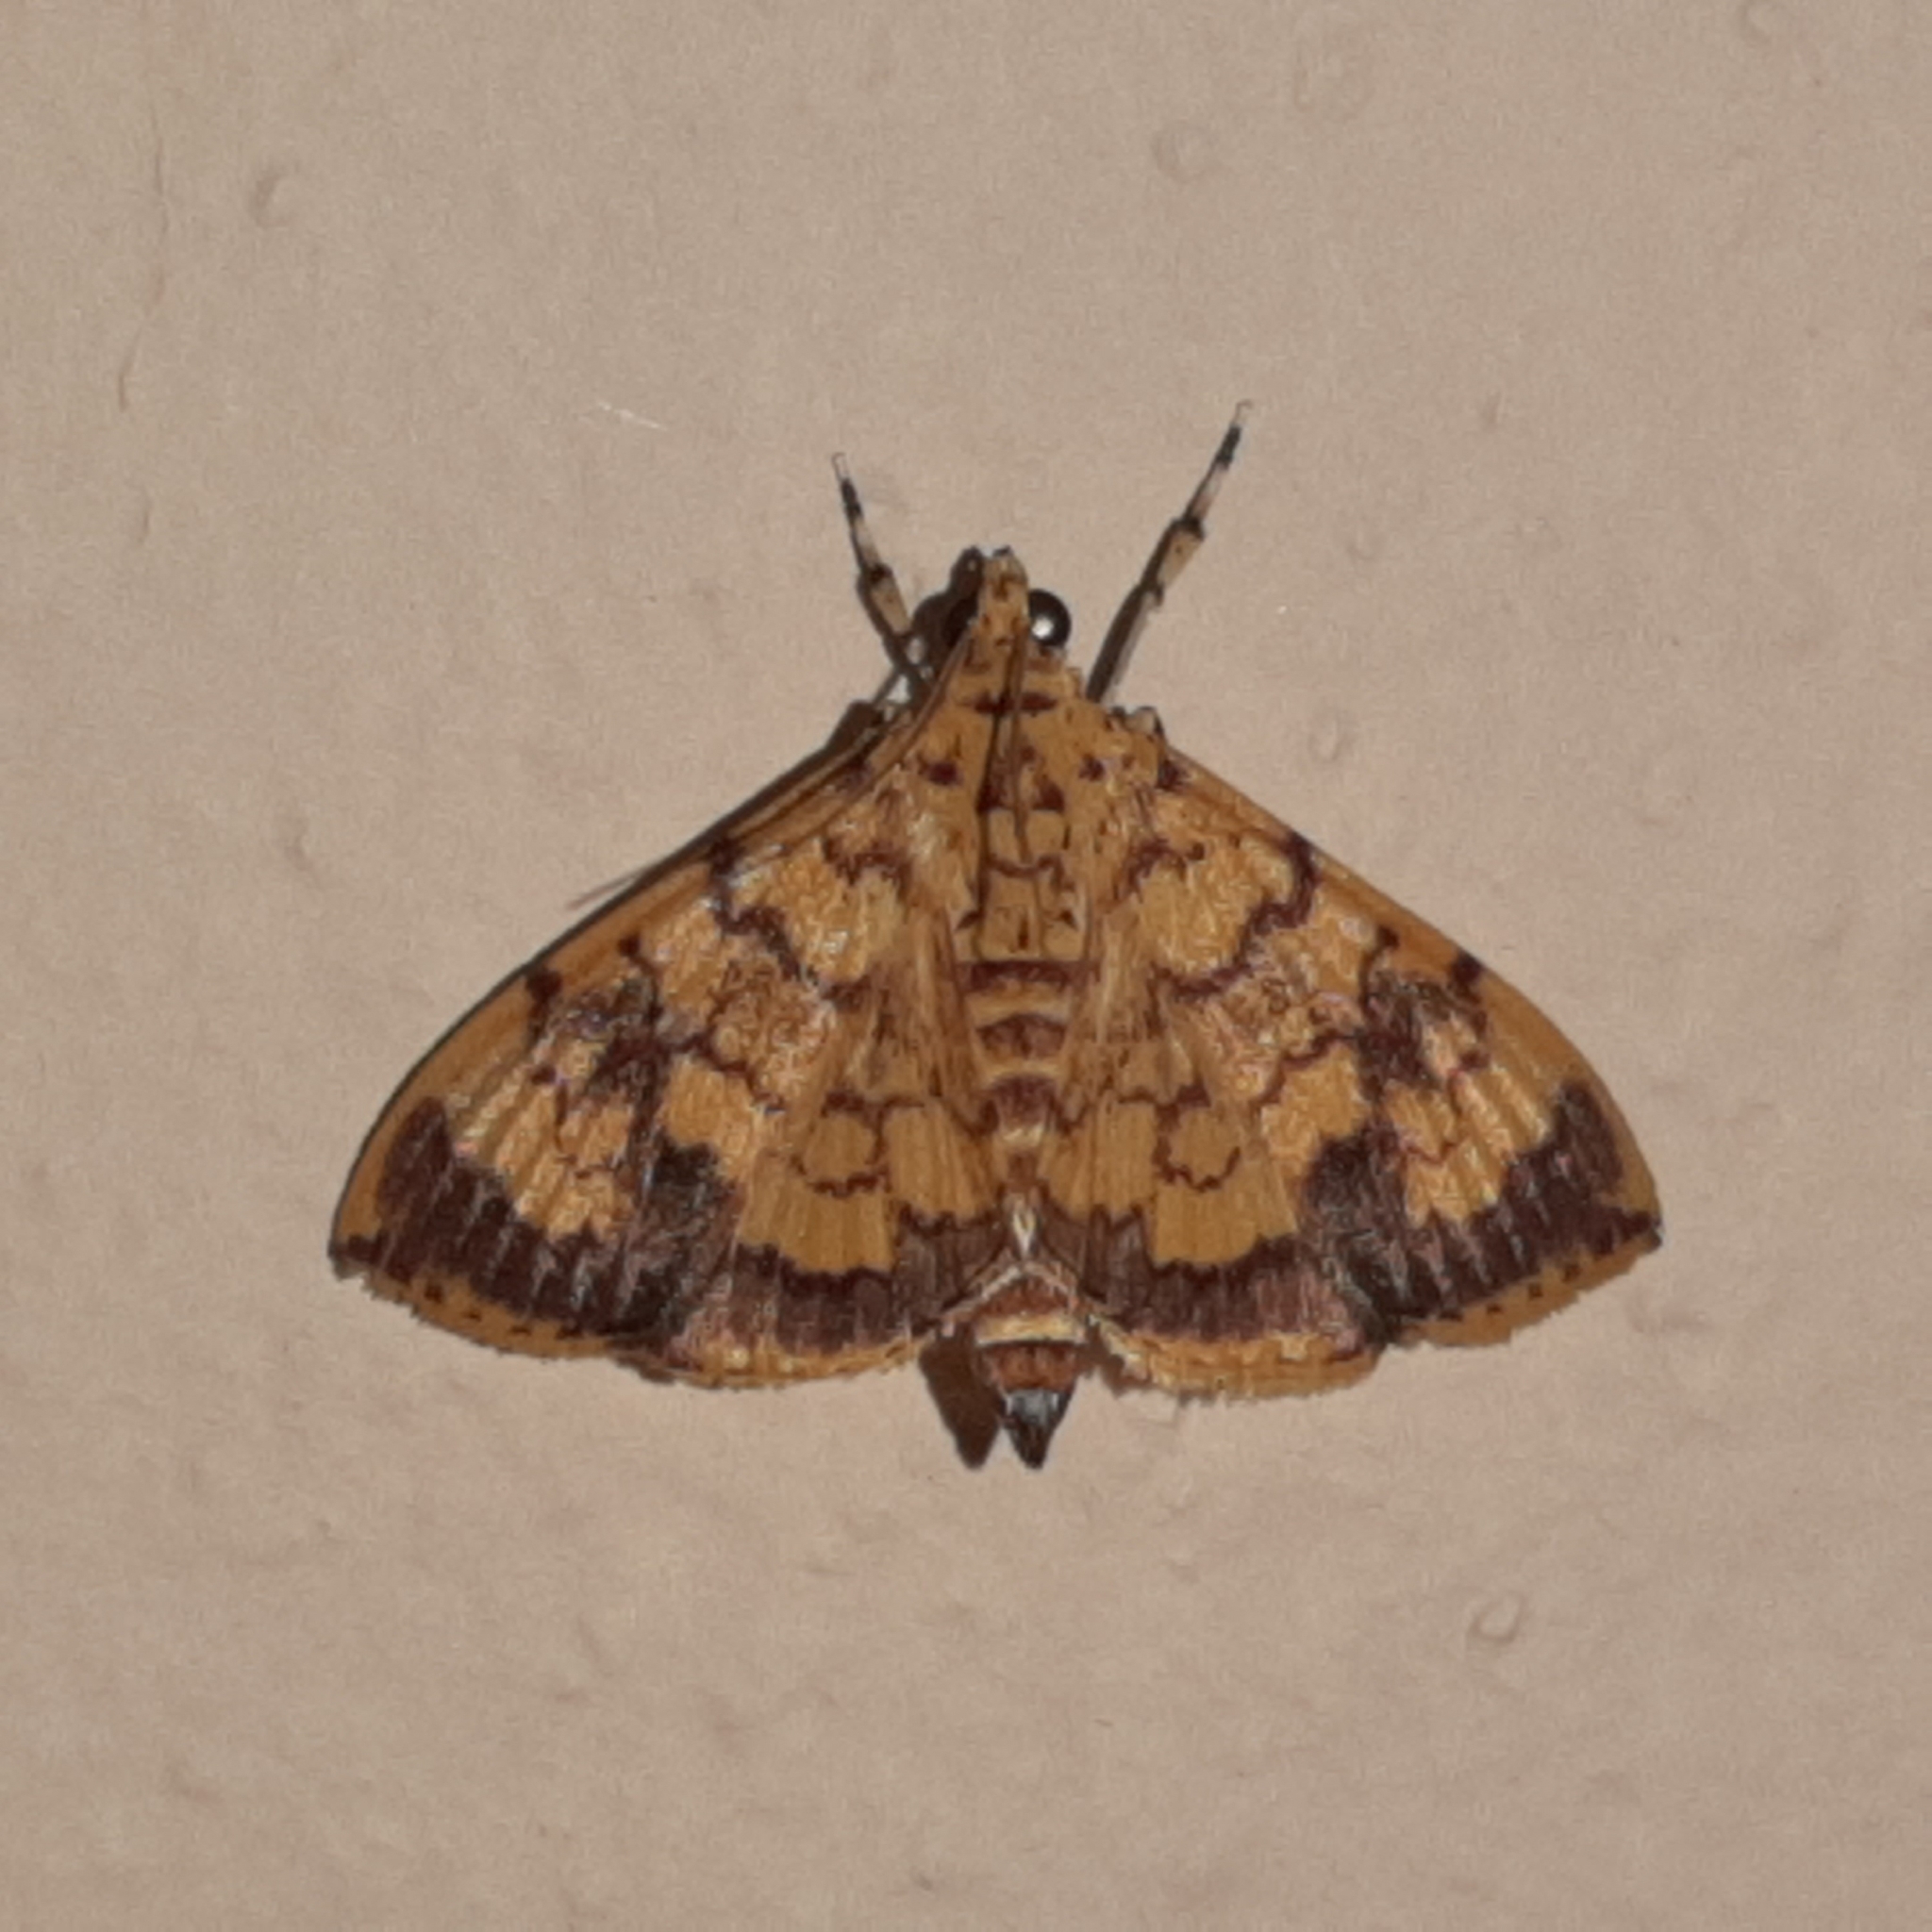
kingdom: Animalia
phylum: Arthropoda
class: Insecta
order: Lepidoptera
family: Crambidae
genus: Portentomorpha
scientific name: Portentomorpha xanthialis
